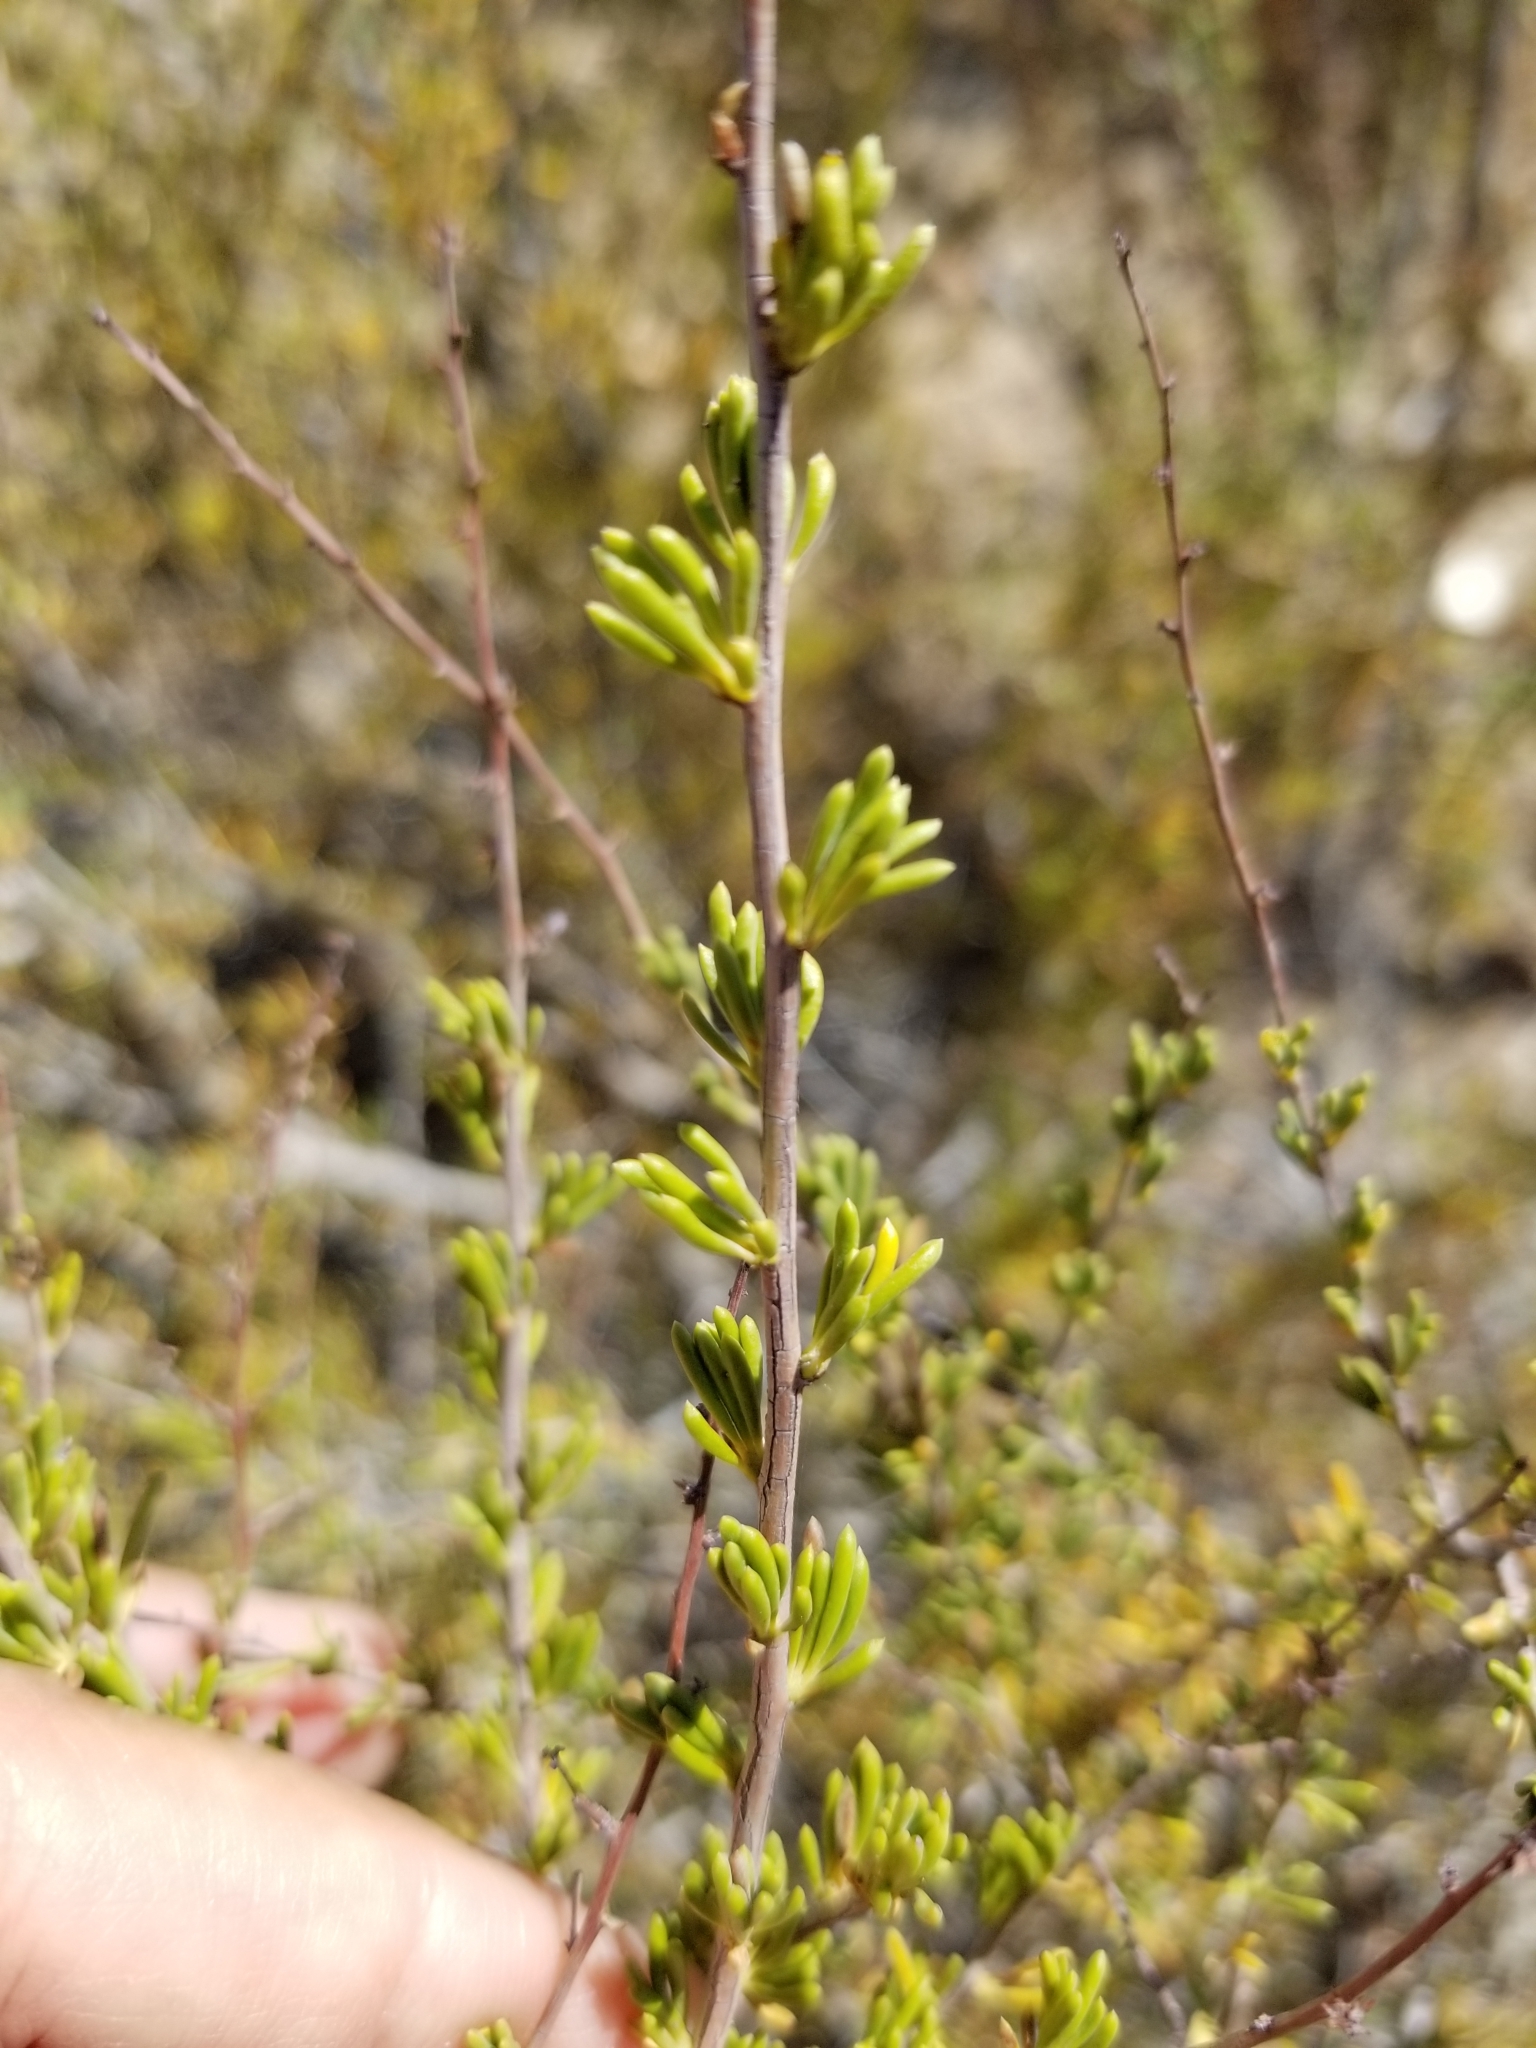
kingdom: Plantae
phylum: Tracheophyta
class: Magnoliopsida
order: Rosales
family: Rosaceae
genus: Adenostoma
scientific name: Adenostoma fasciculatum
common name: Chamise
